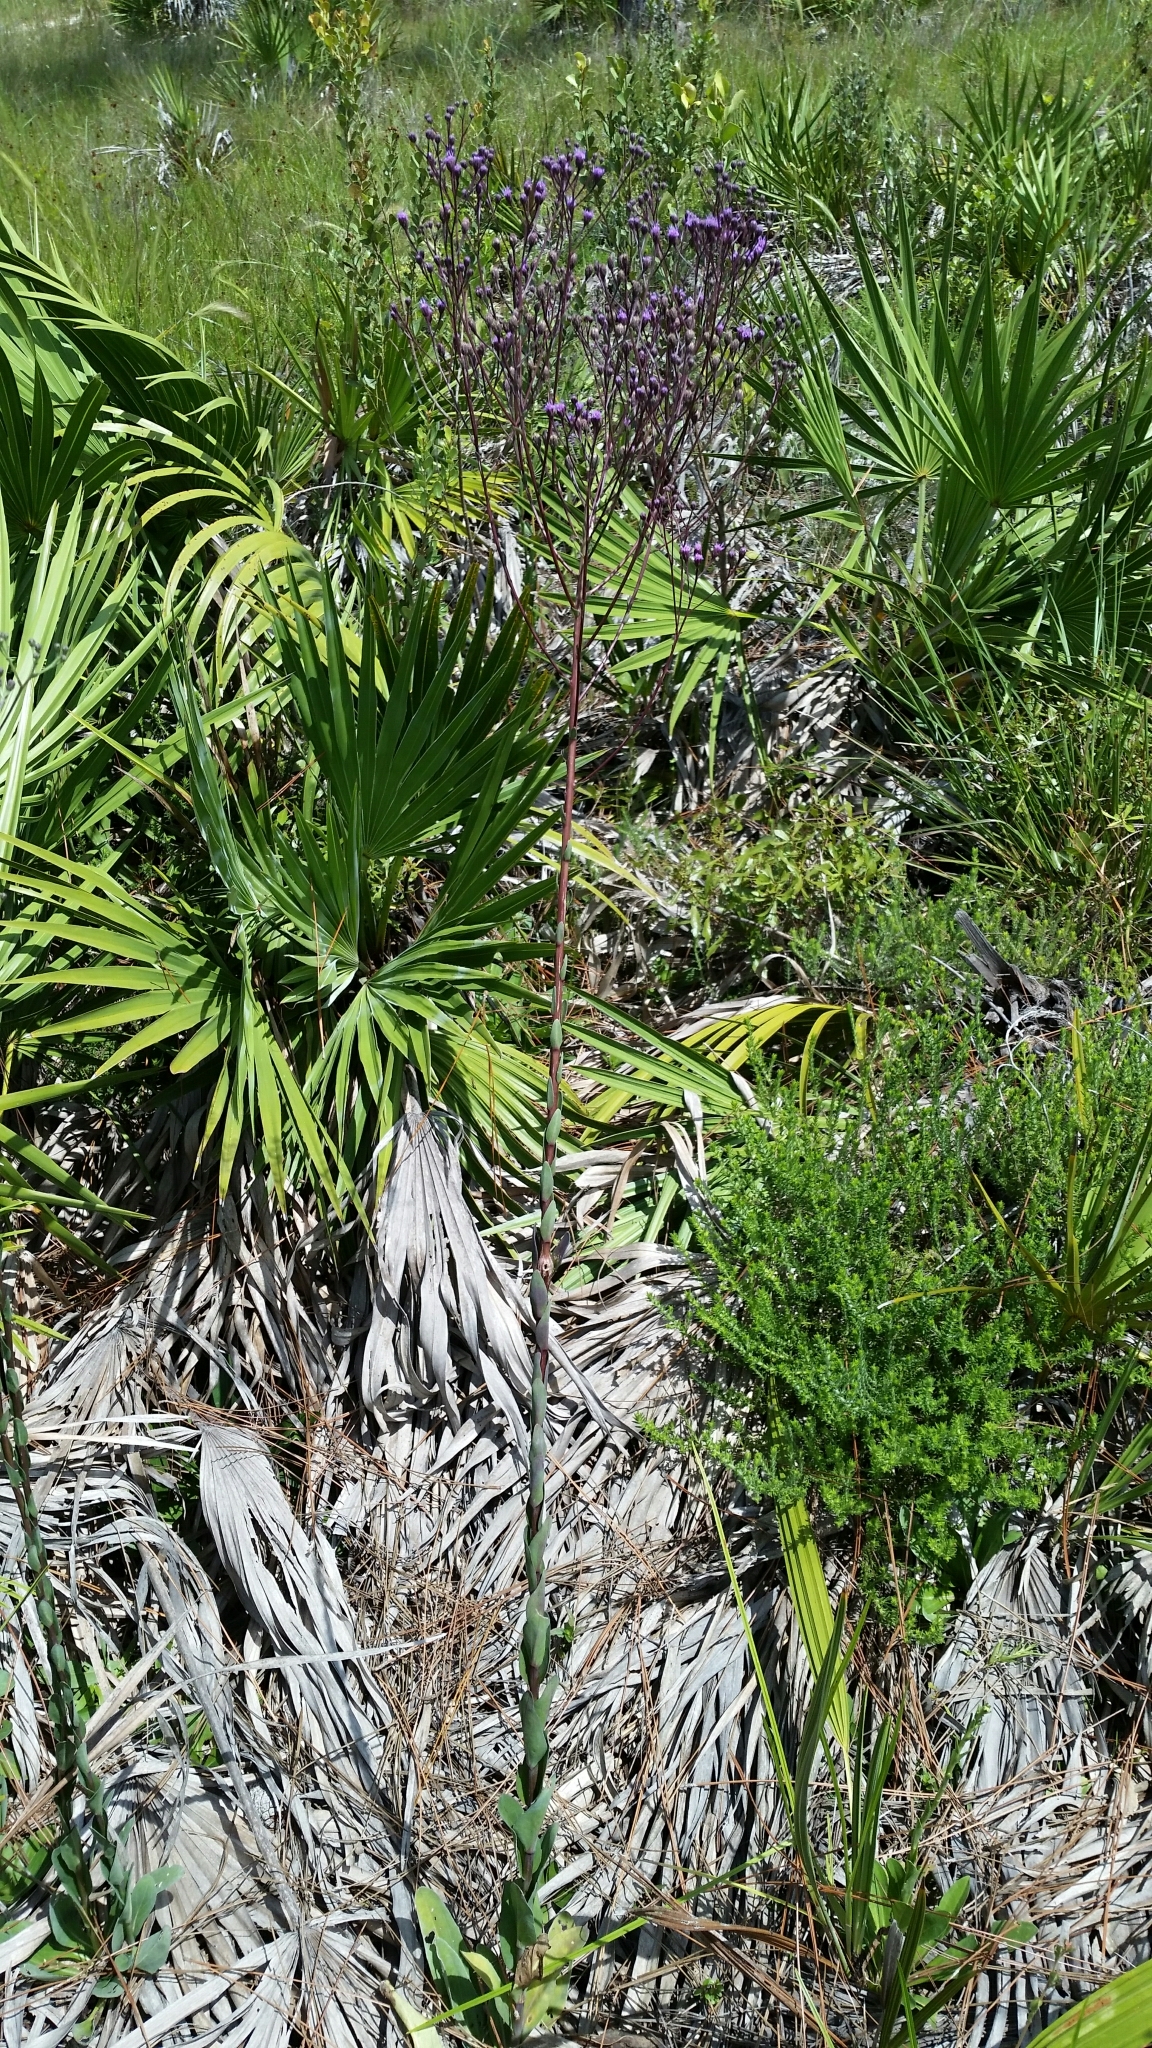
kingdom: Plantae
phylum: Tracheophyta
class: Magnoliopsida
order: Asterales
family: Asteraceae
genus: Carphephorus
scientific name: Carphephorus
